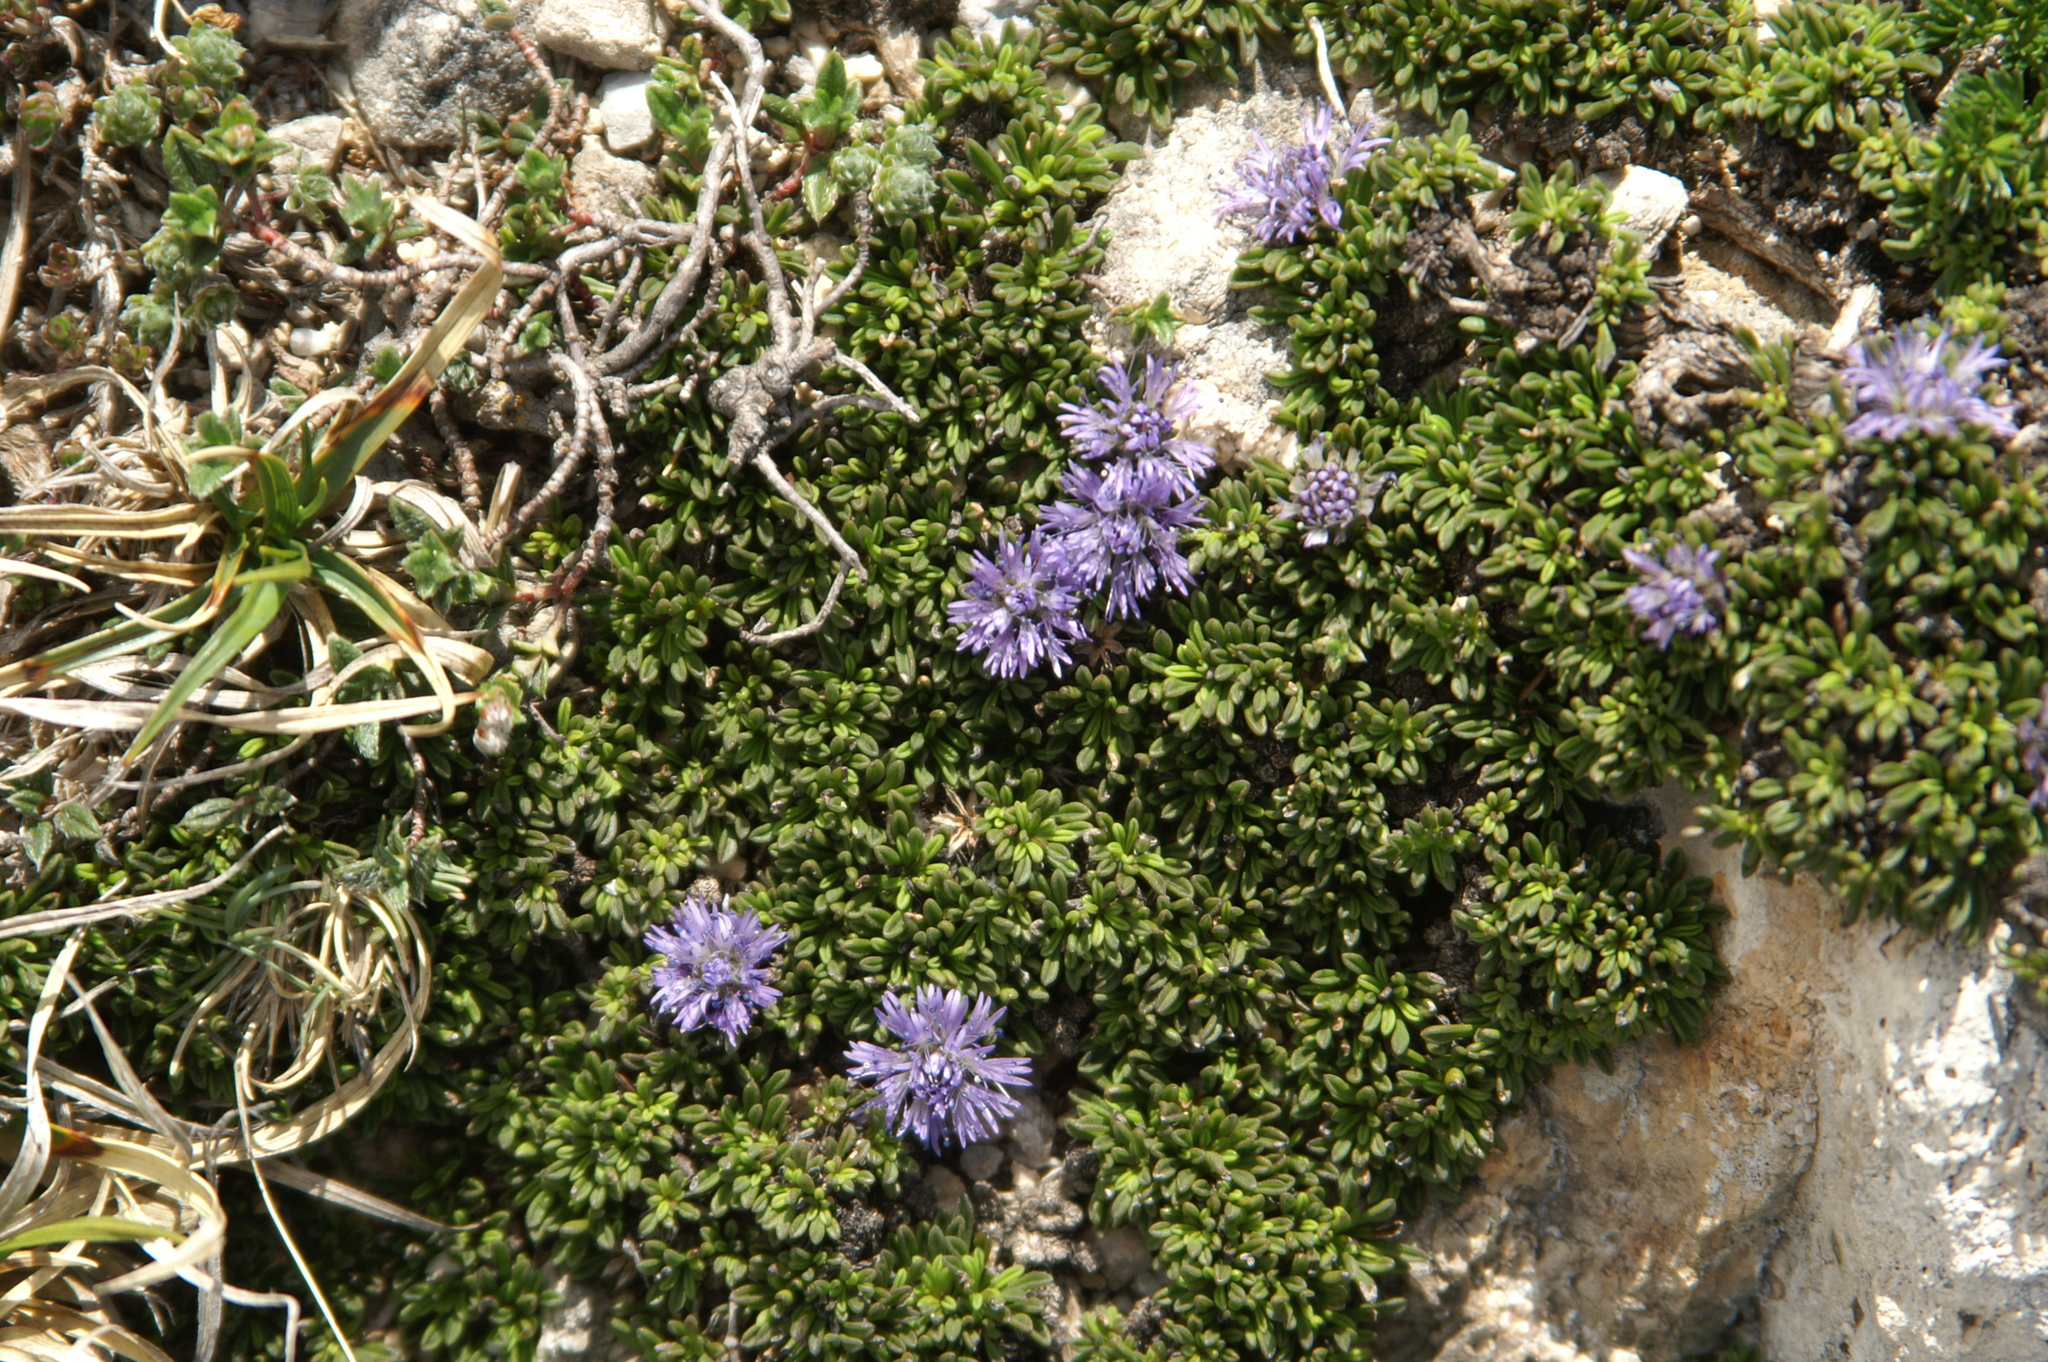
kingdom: Plantae
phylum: Tracheophyta
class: Magnoliopsida
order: Lamiales
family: Plantaginaceae
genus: Globularia
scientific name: Globularia repens
